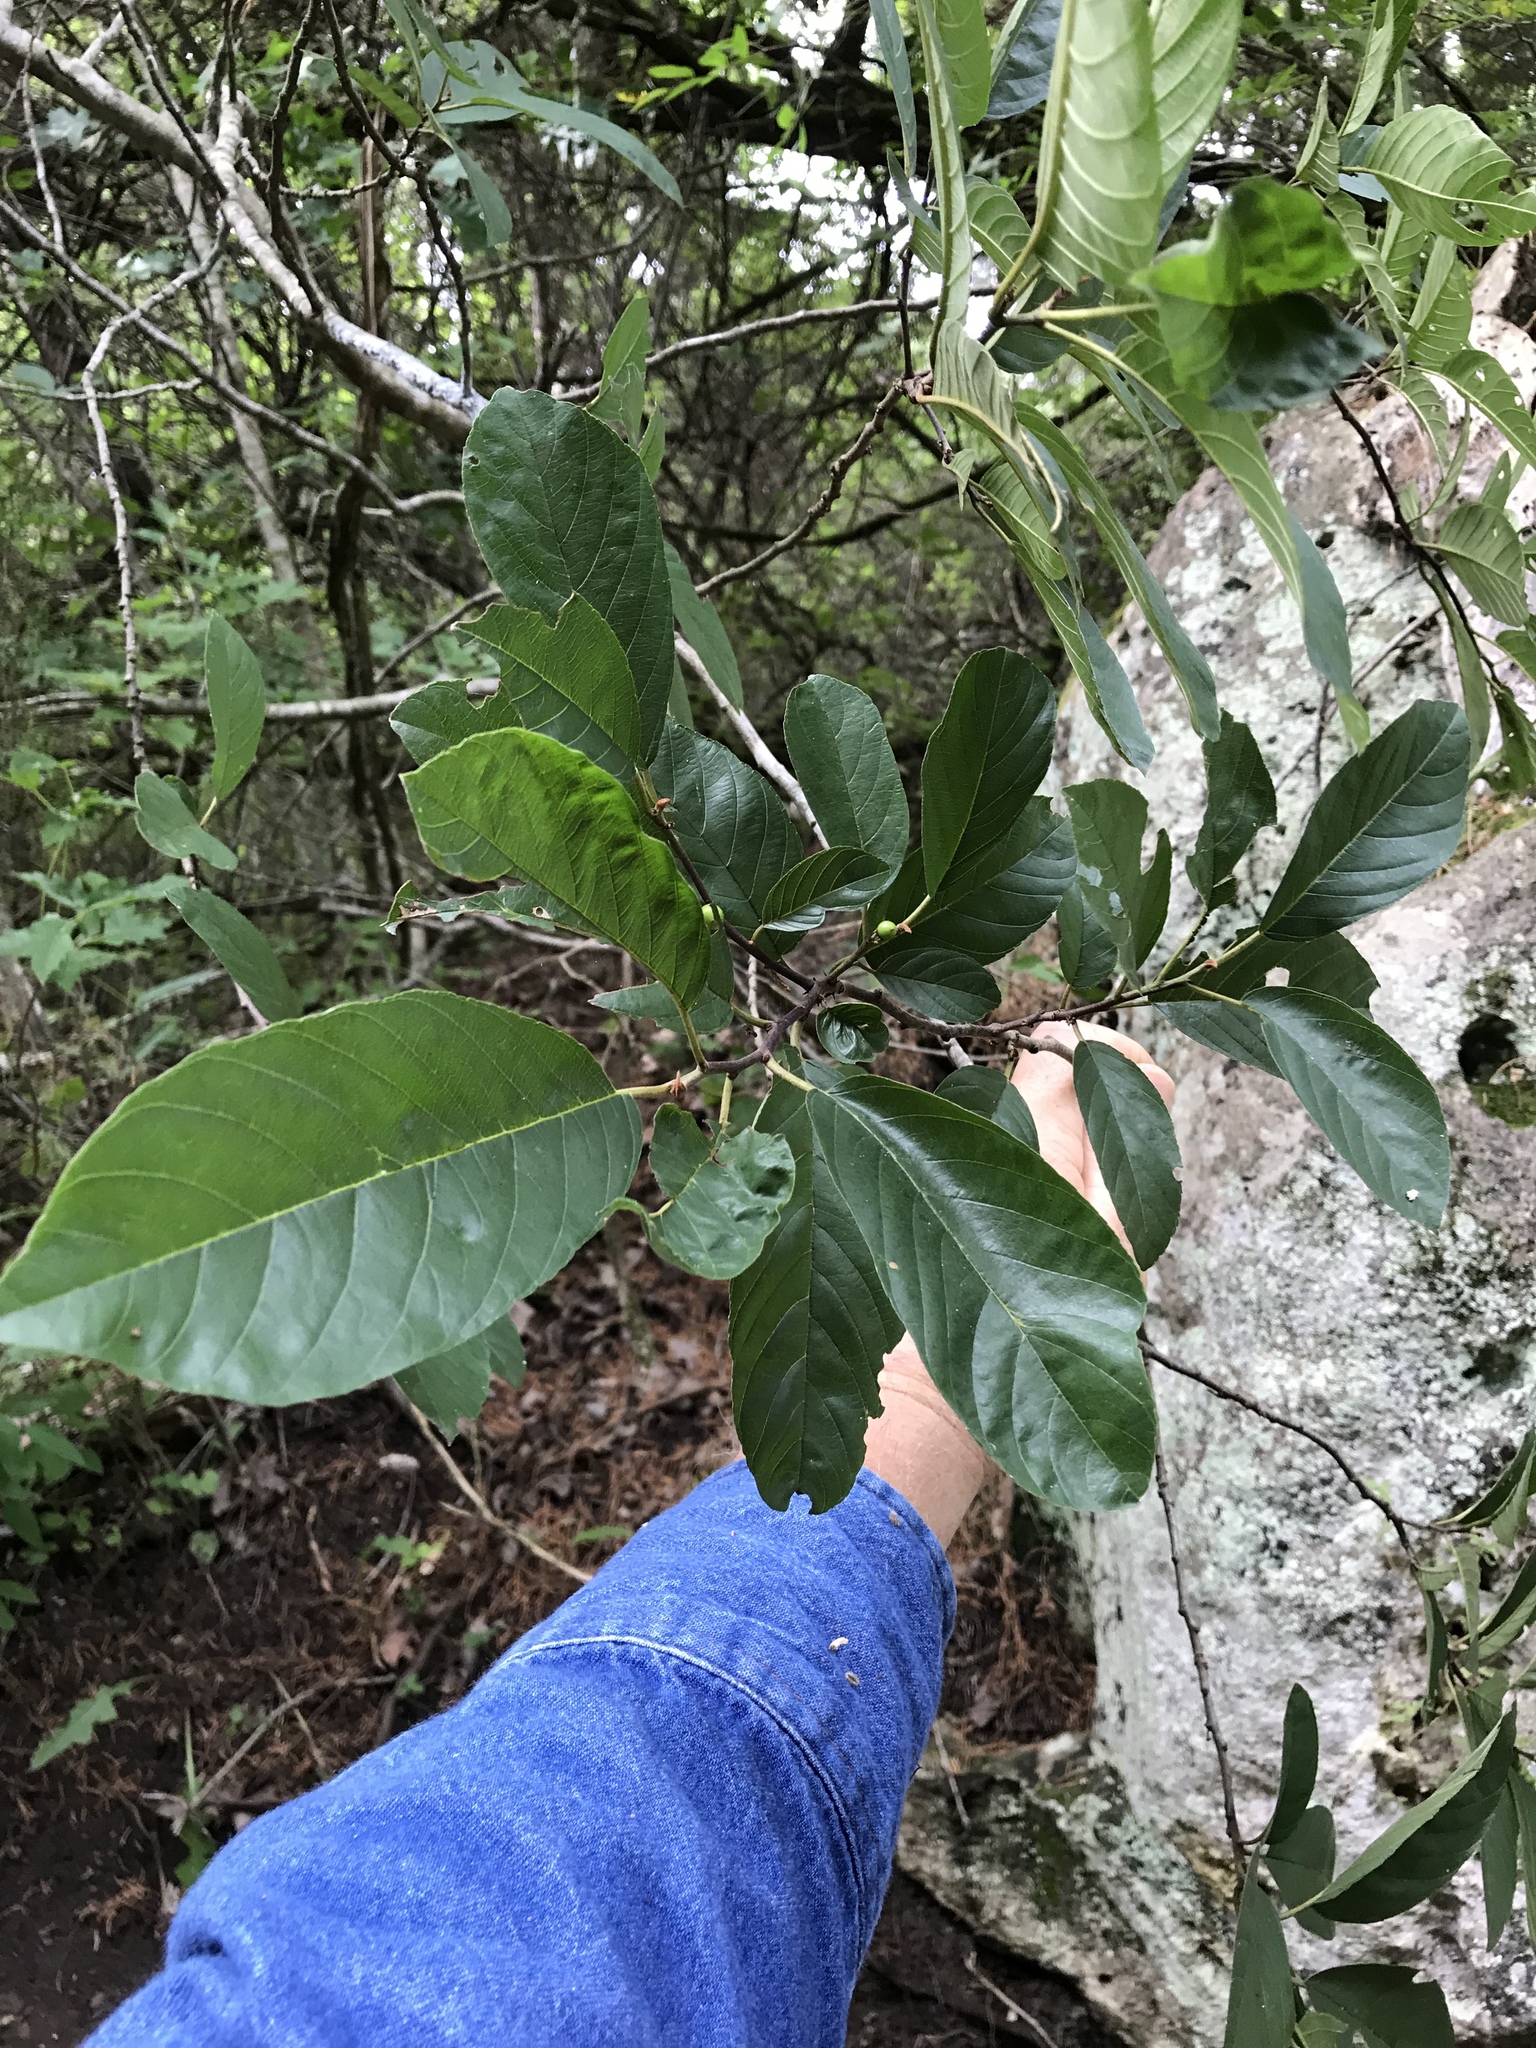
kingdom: Plantae
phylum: Tracheophyta
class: Magnoliopsida
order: Rosales
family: Rhamnaceae
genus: Frangula
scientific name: Frangula caroliniana
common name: Carolina buckthorn
